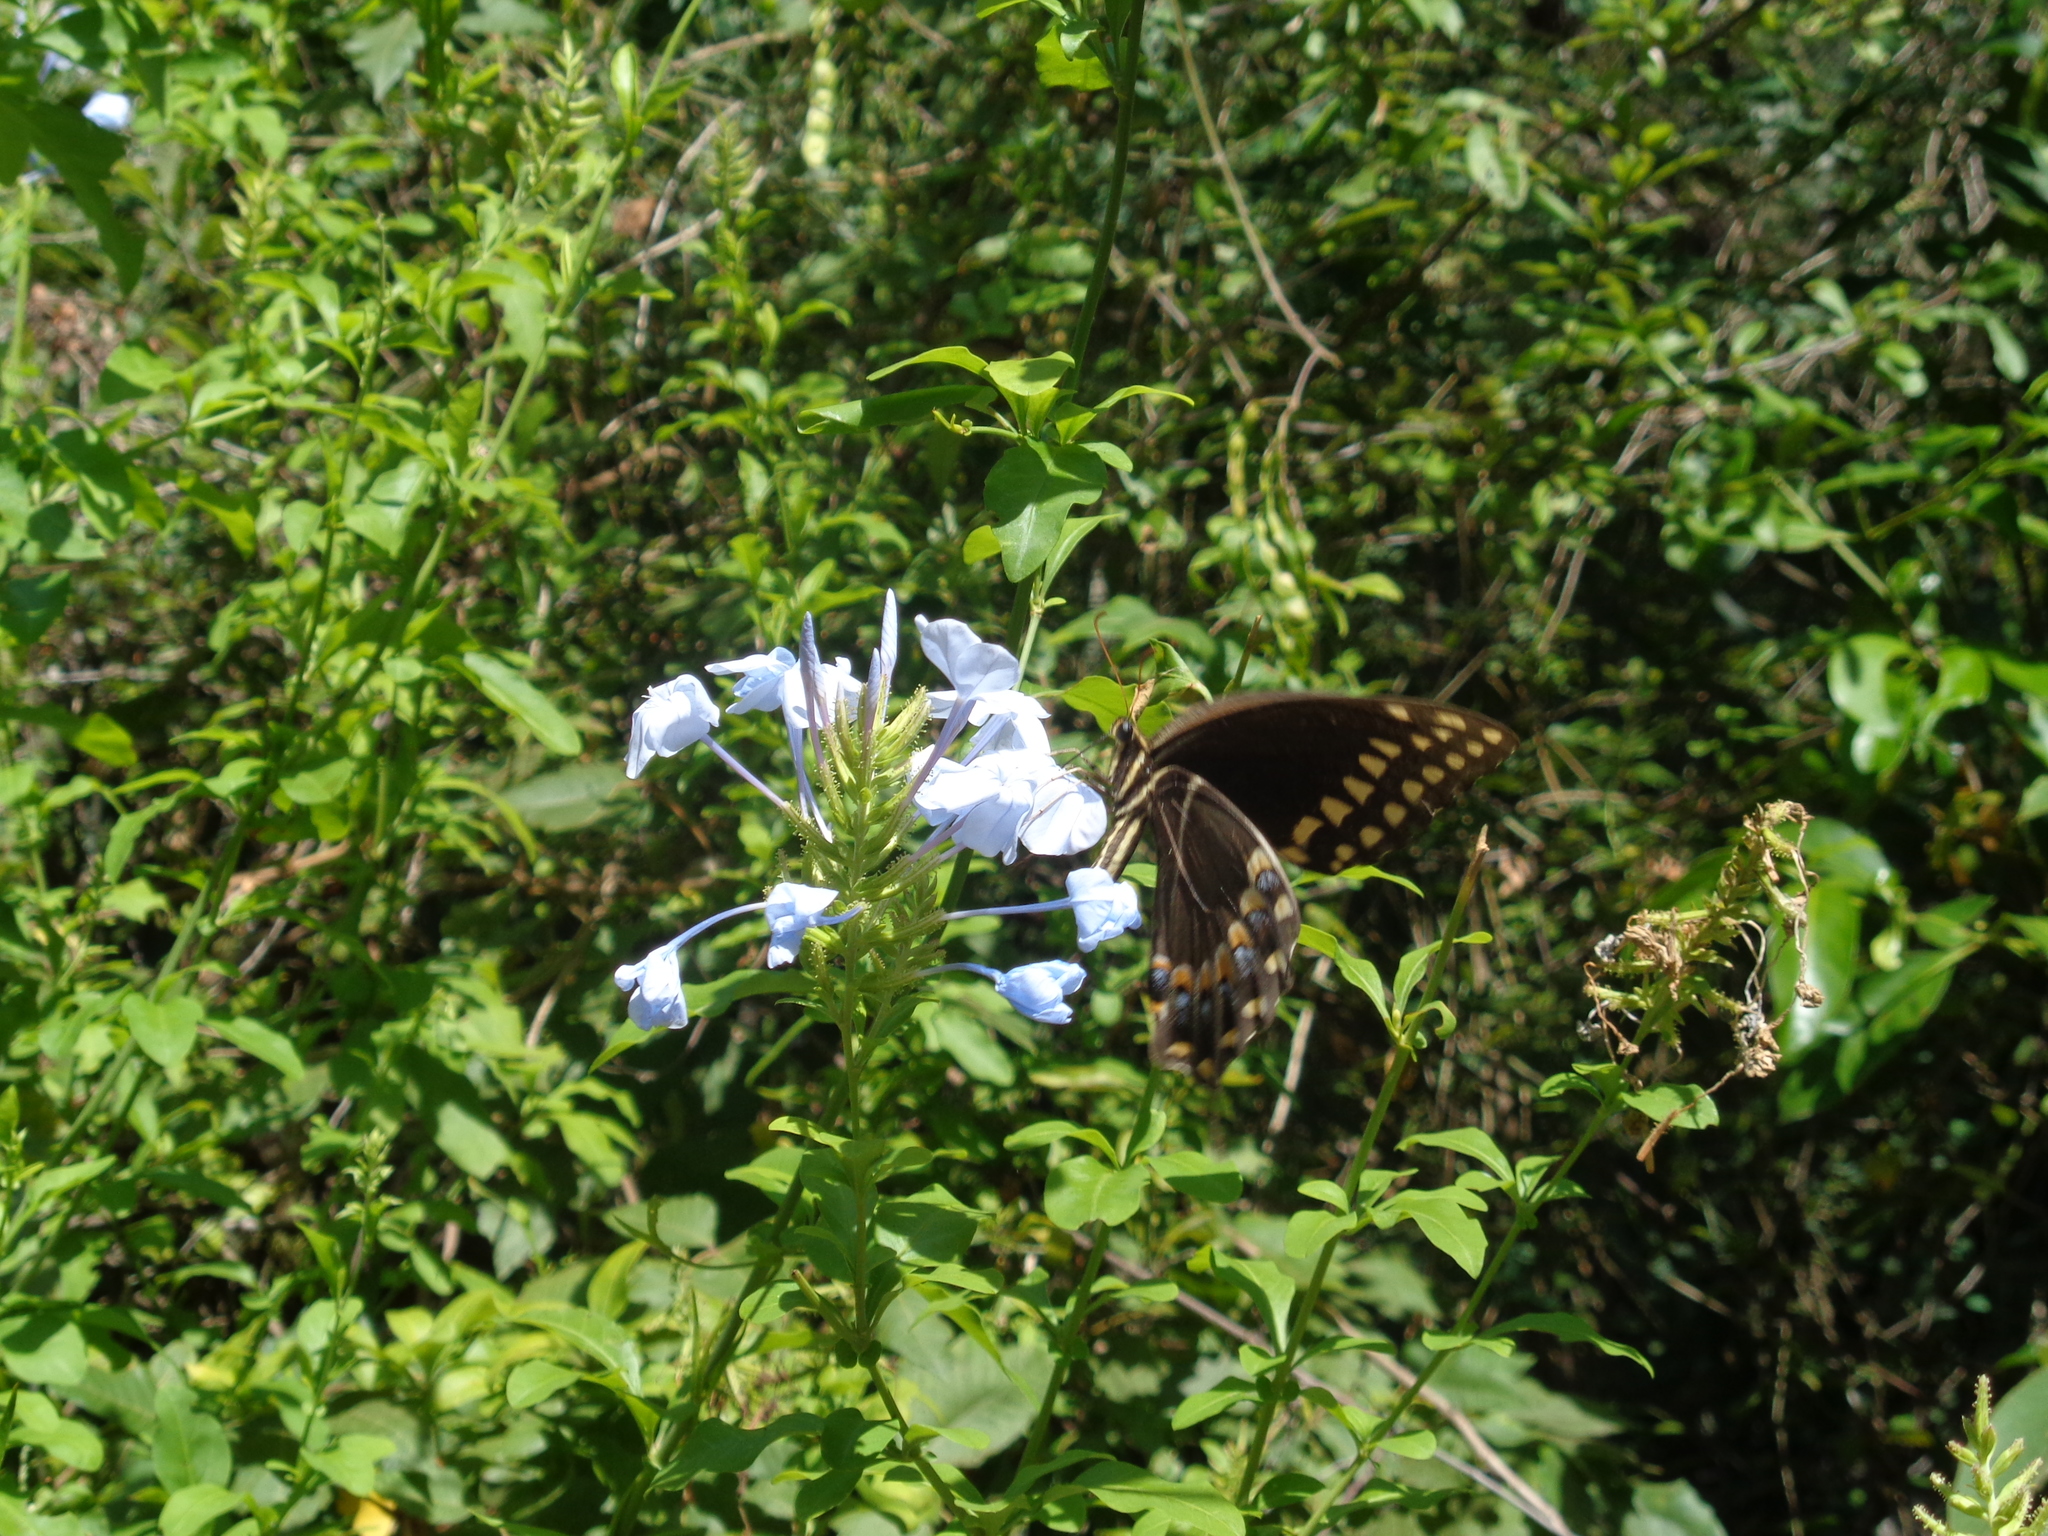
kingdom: Animalia
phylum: Arthropoda
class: Insecta
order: Lepidoptera
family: Papilionidae
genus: Papilio
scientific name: Papilio palamedes
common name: Palamedes swallowtail
